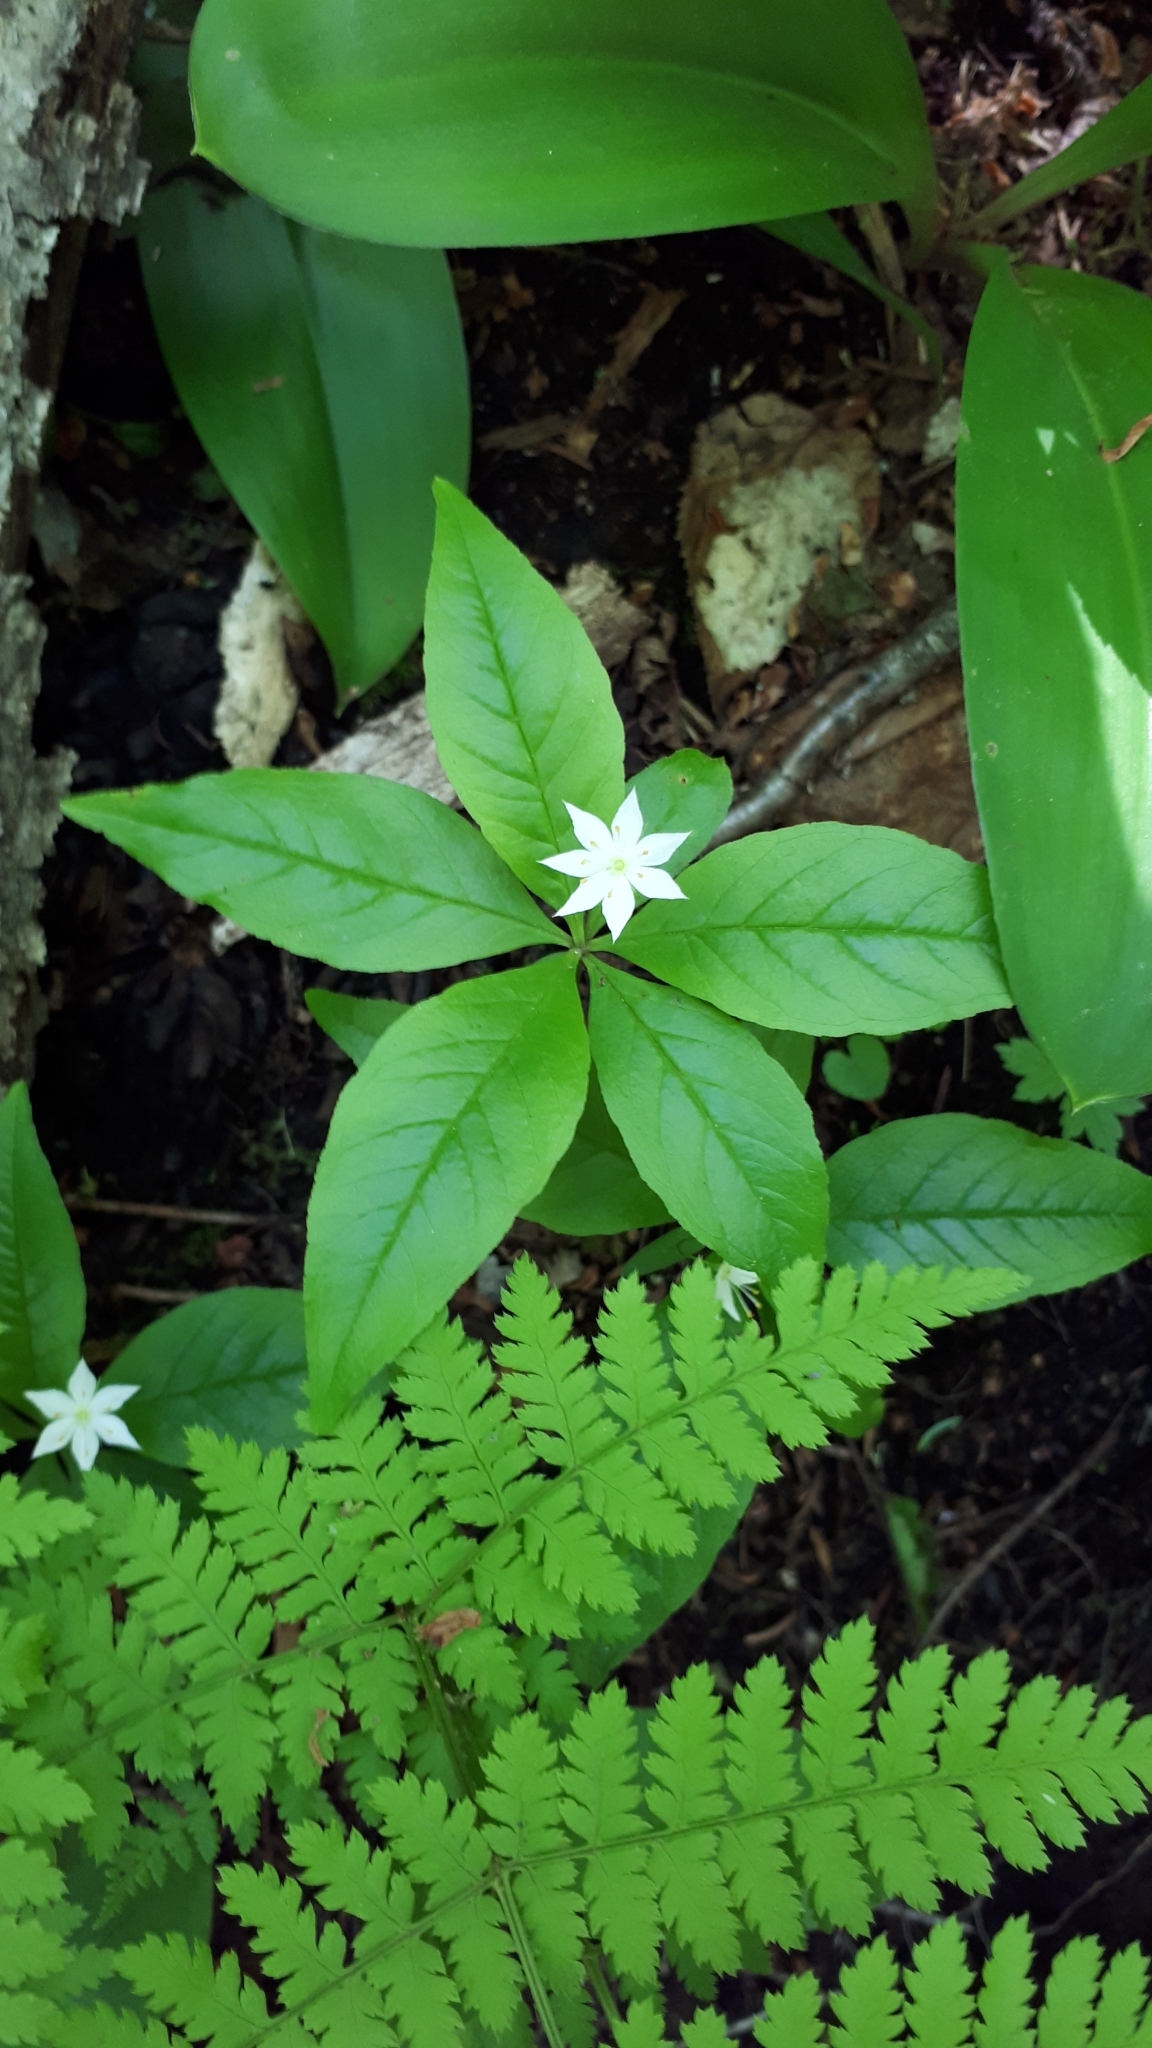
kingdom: Plantae
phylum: Tracheophyta
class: Magnoliopsida
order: Ericales
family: Primulaceae
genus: Lysimachia
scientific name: Lysimachia borealis
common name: American starflower
